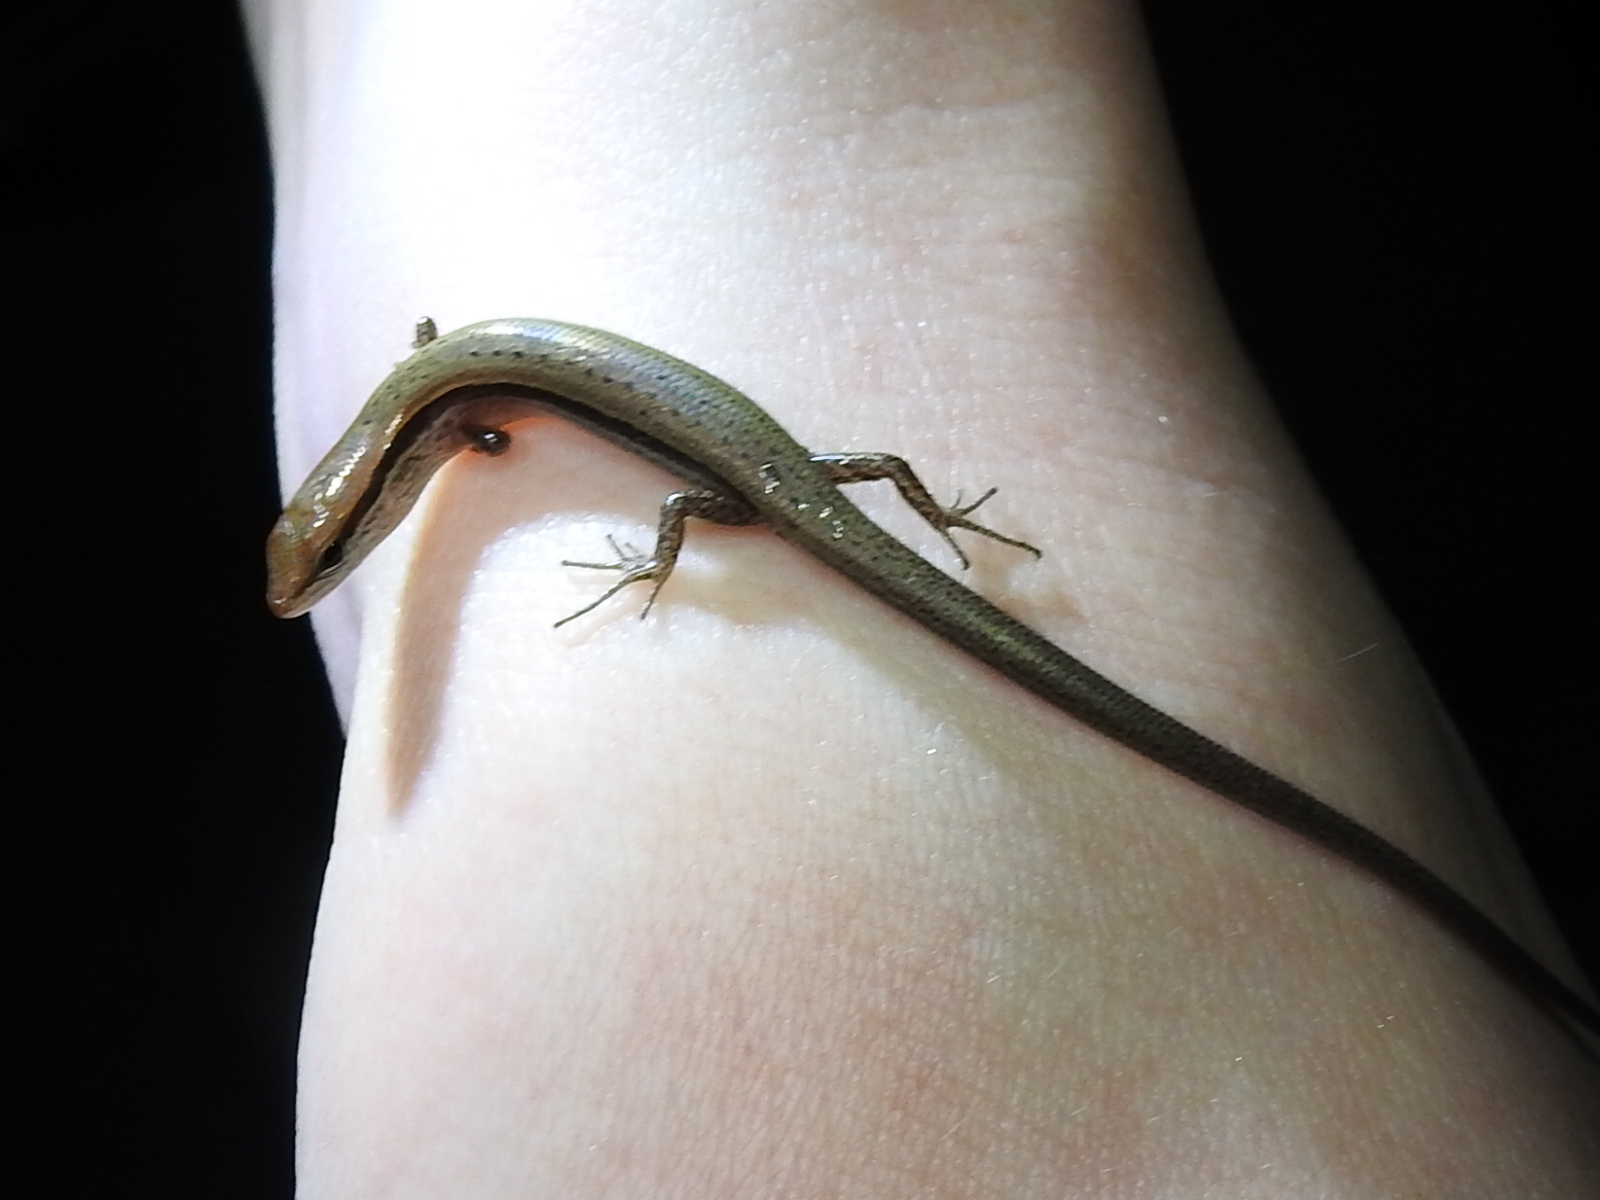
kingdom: Animalia
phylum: Chordata
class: Squamata
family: Scincidae
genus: Scincella
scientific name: Scincella lateralis
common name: Ground skink
